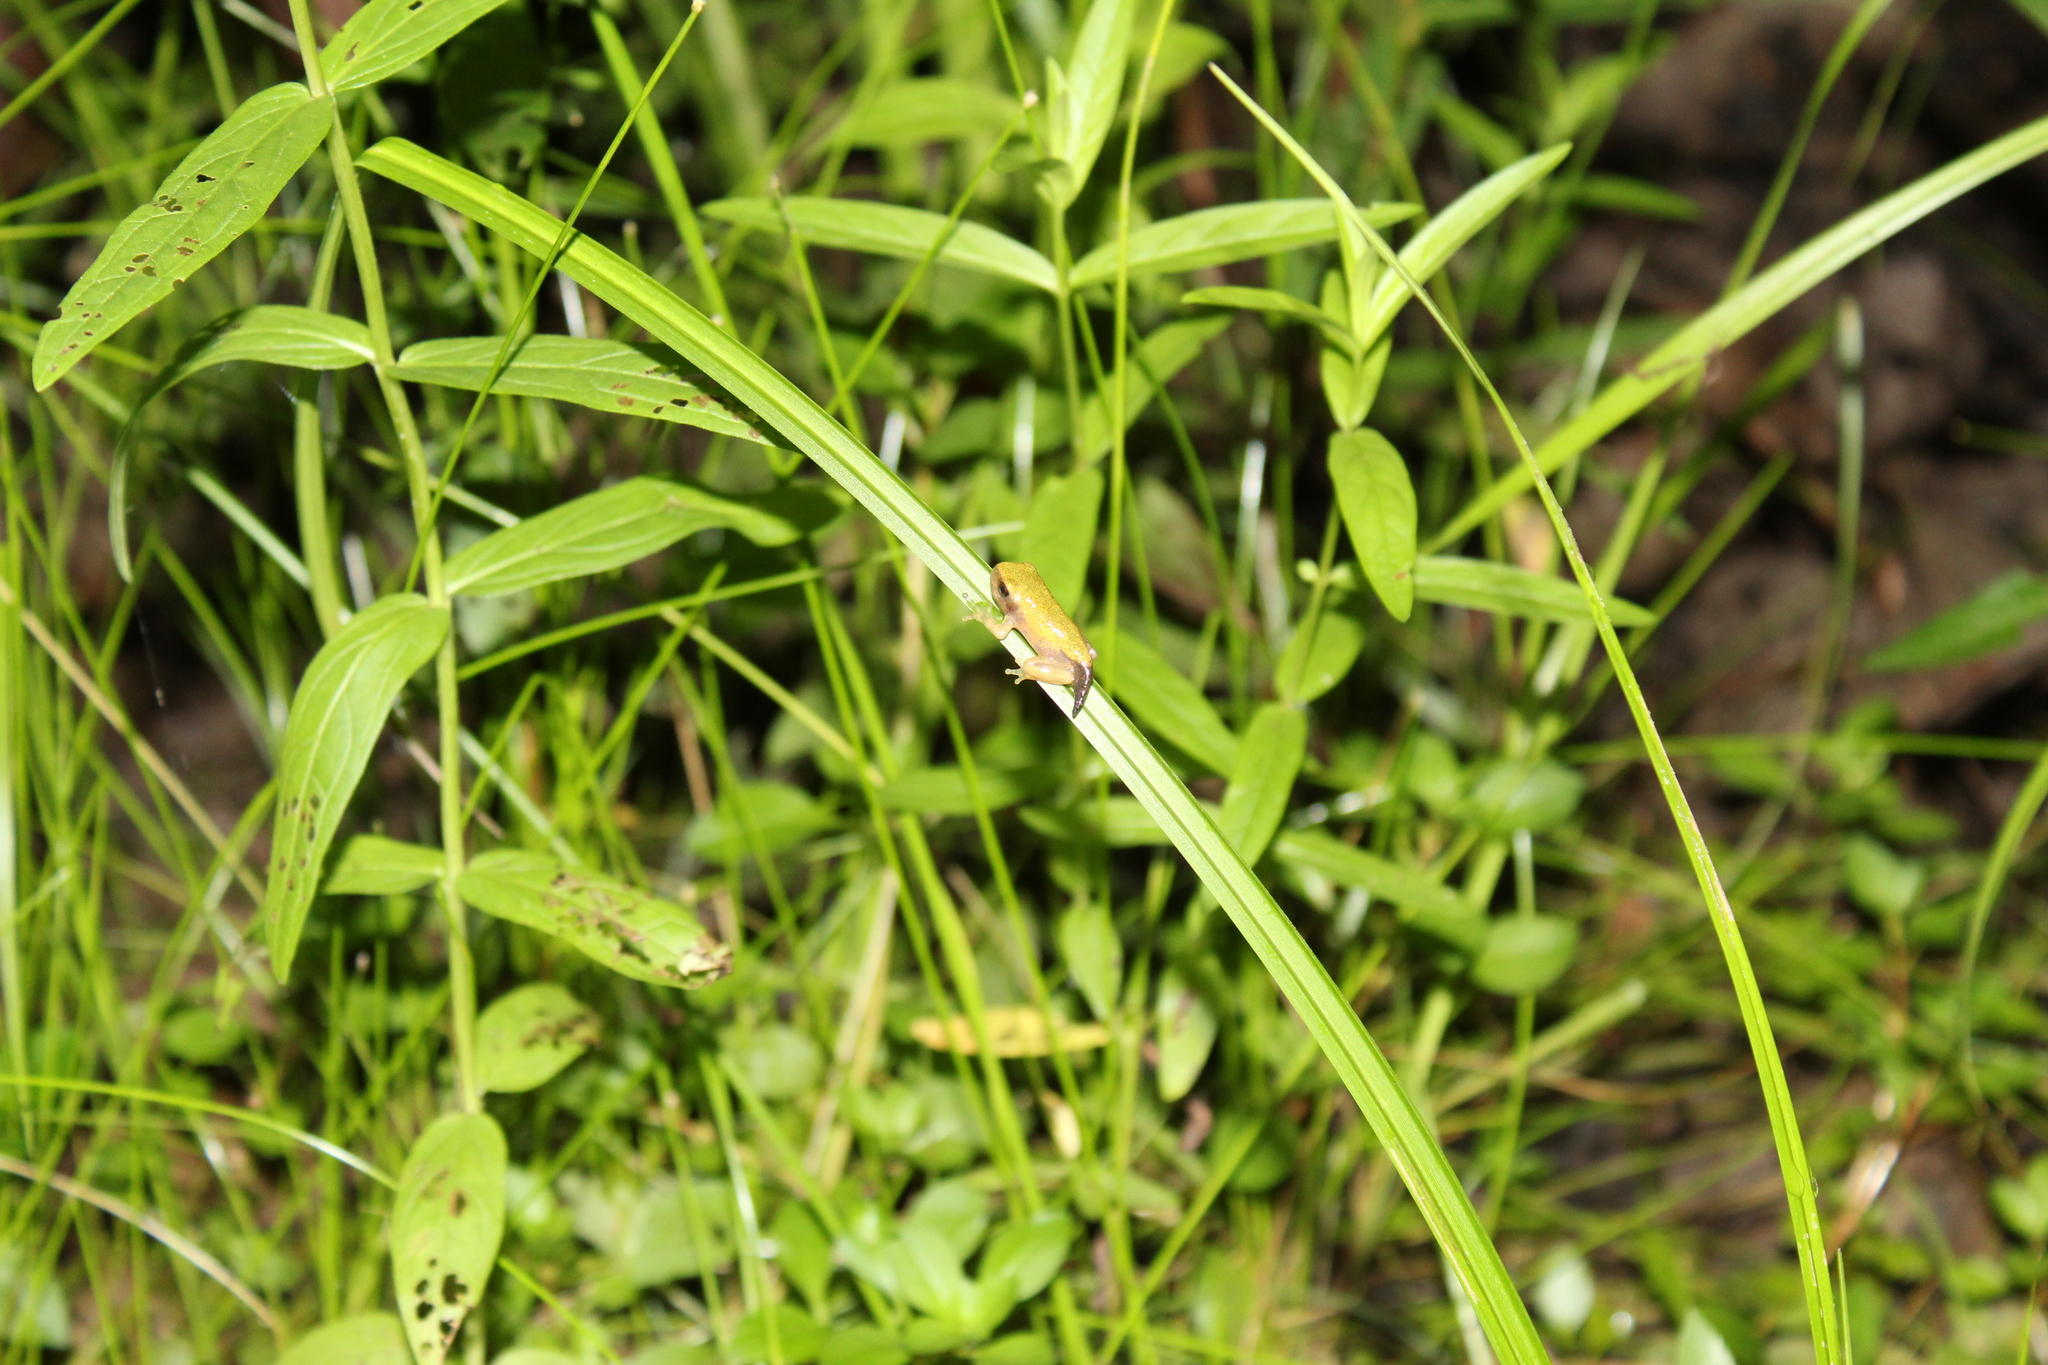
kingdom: Animalia
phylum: Chordata
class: Amphibia
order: Anura
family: Hylidae
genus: Dryophytes
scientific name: Dryophytes versicolor
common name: Gray treefrog
